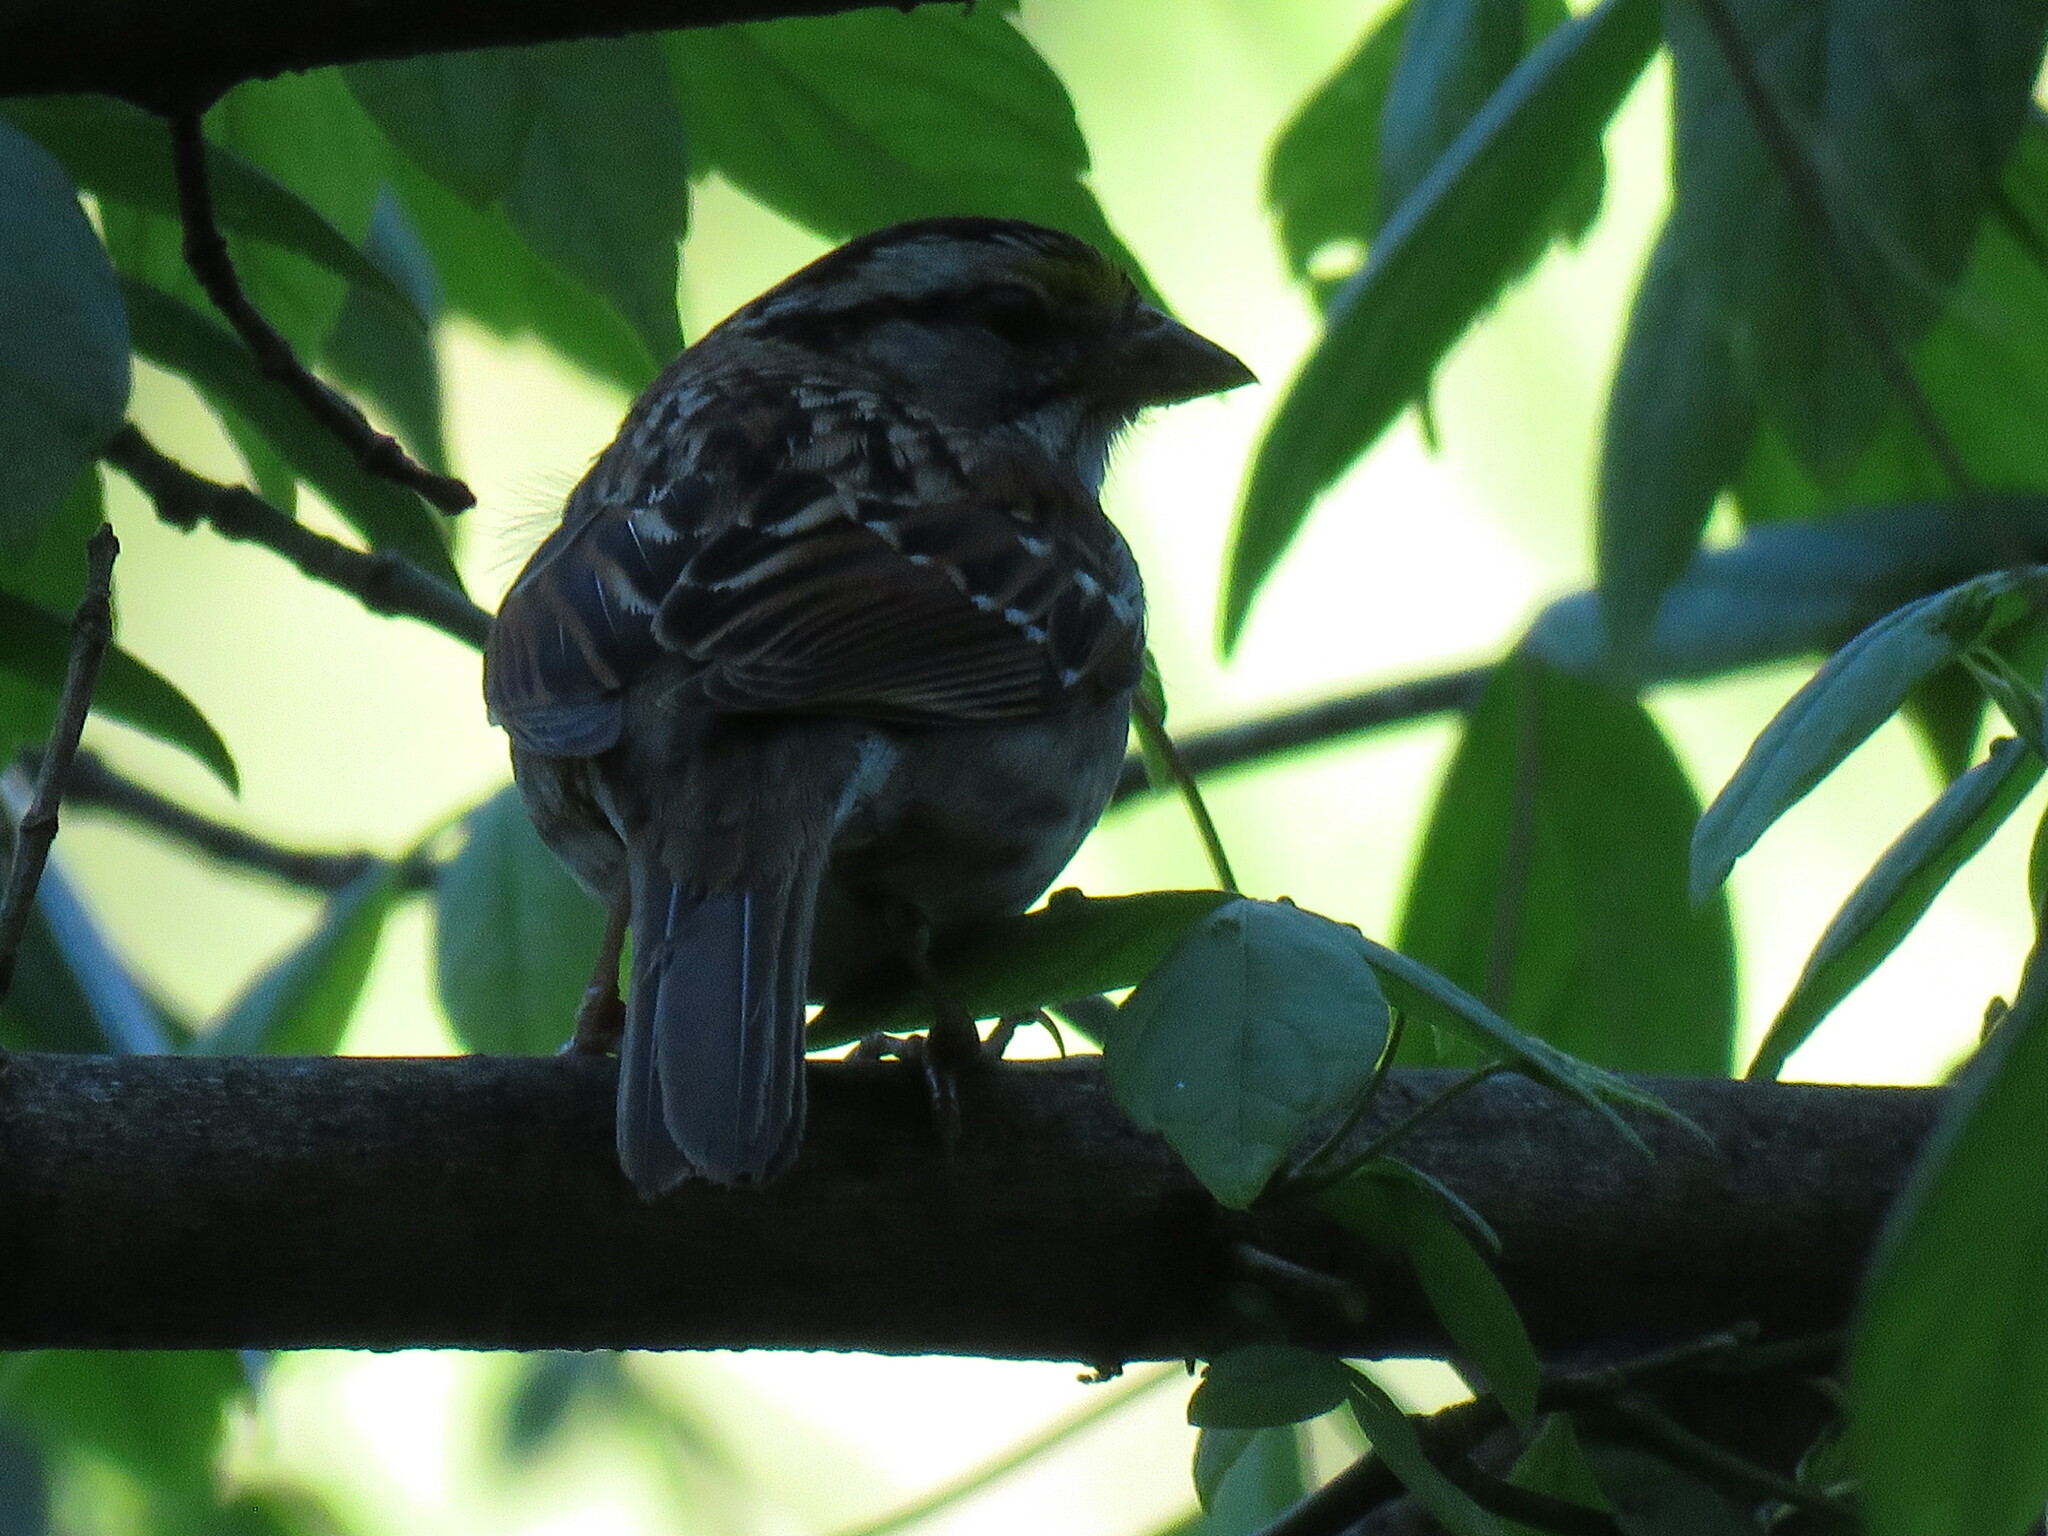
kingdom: Animalia
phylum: Chordata
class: Aves
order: Passeriformes
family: Passerellidae
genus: Zonotrichia
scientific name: Zonotrichia albicollis
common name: White-throated sparrow
